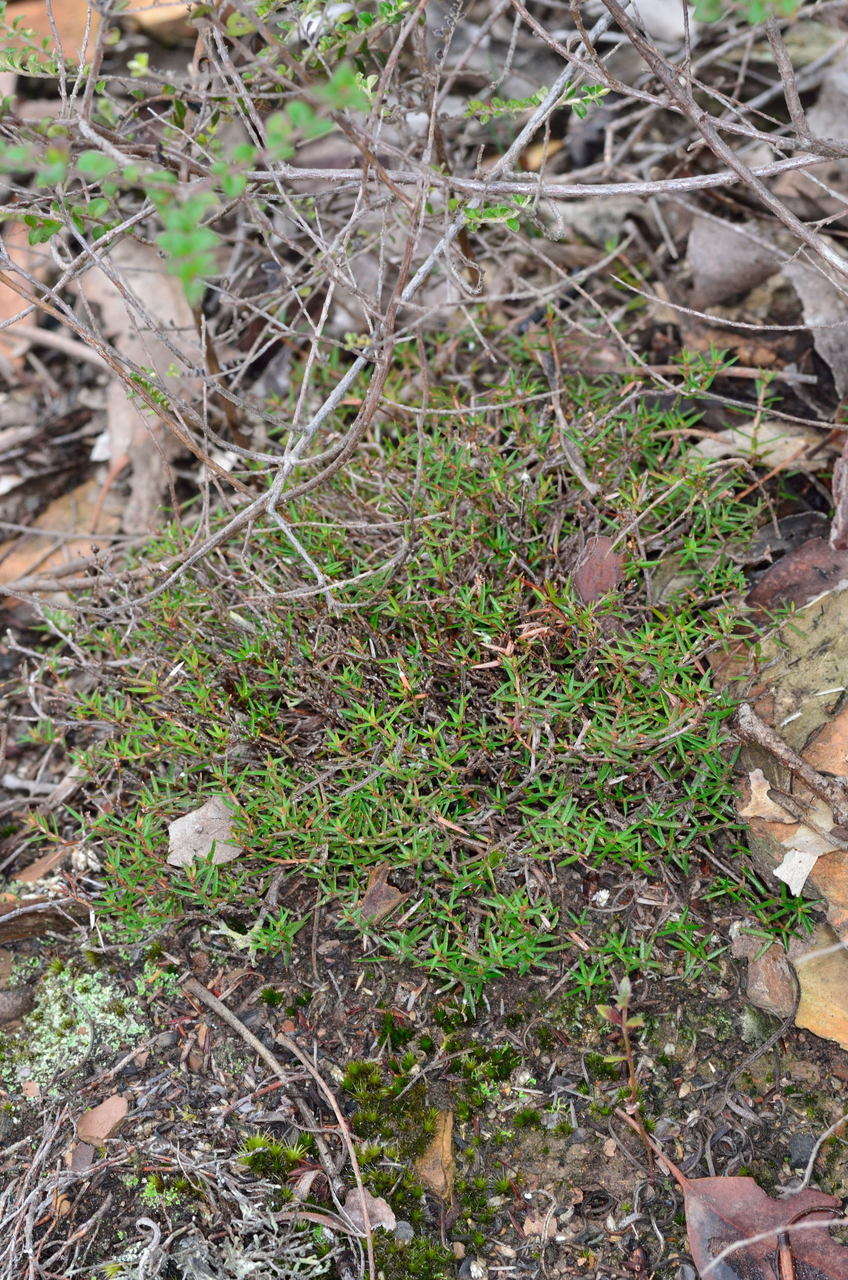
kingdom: Plantae
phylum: Tracheophyta
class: Magnoliopsida
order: Dilleniales
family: Dilleniaceae
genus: Hibbertia
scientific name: Hibbertia exutiacies
